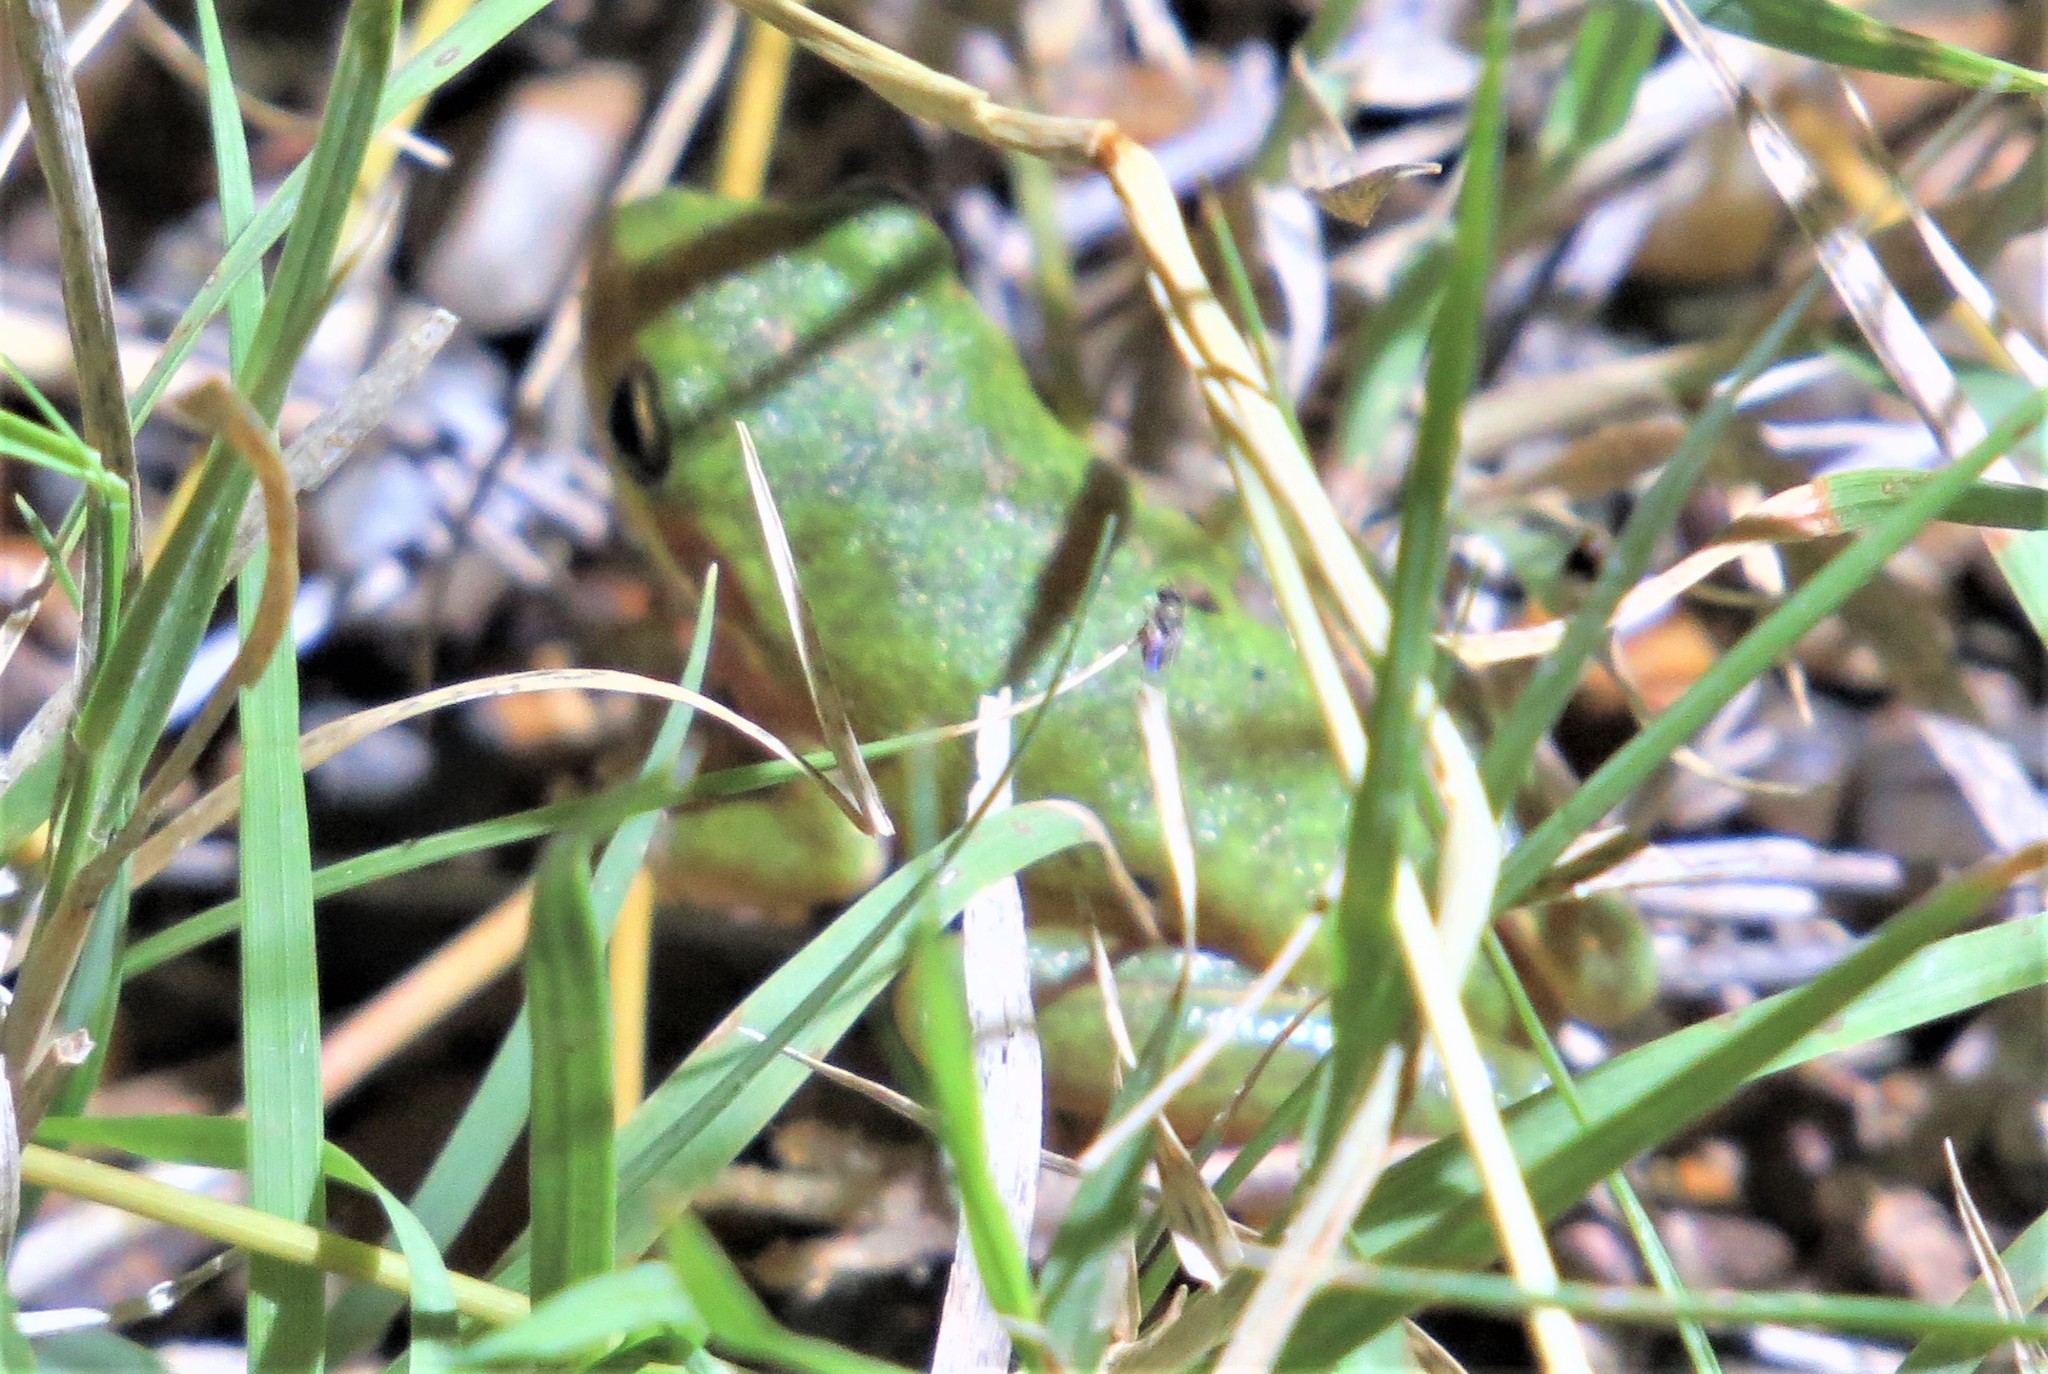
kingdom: Animalia
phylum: Chordata
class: Amphibia
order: Anura
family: Hylidae
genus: Dryophytes
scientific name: Dryophytes squirellus
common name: Squirrel treefrog
